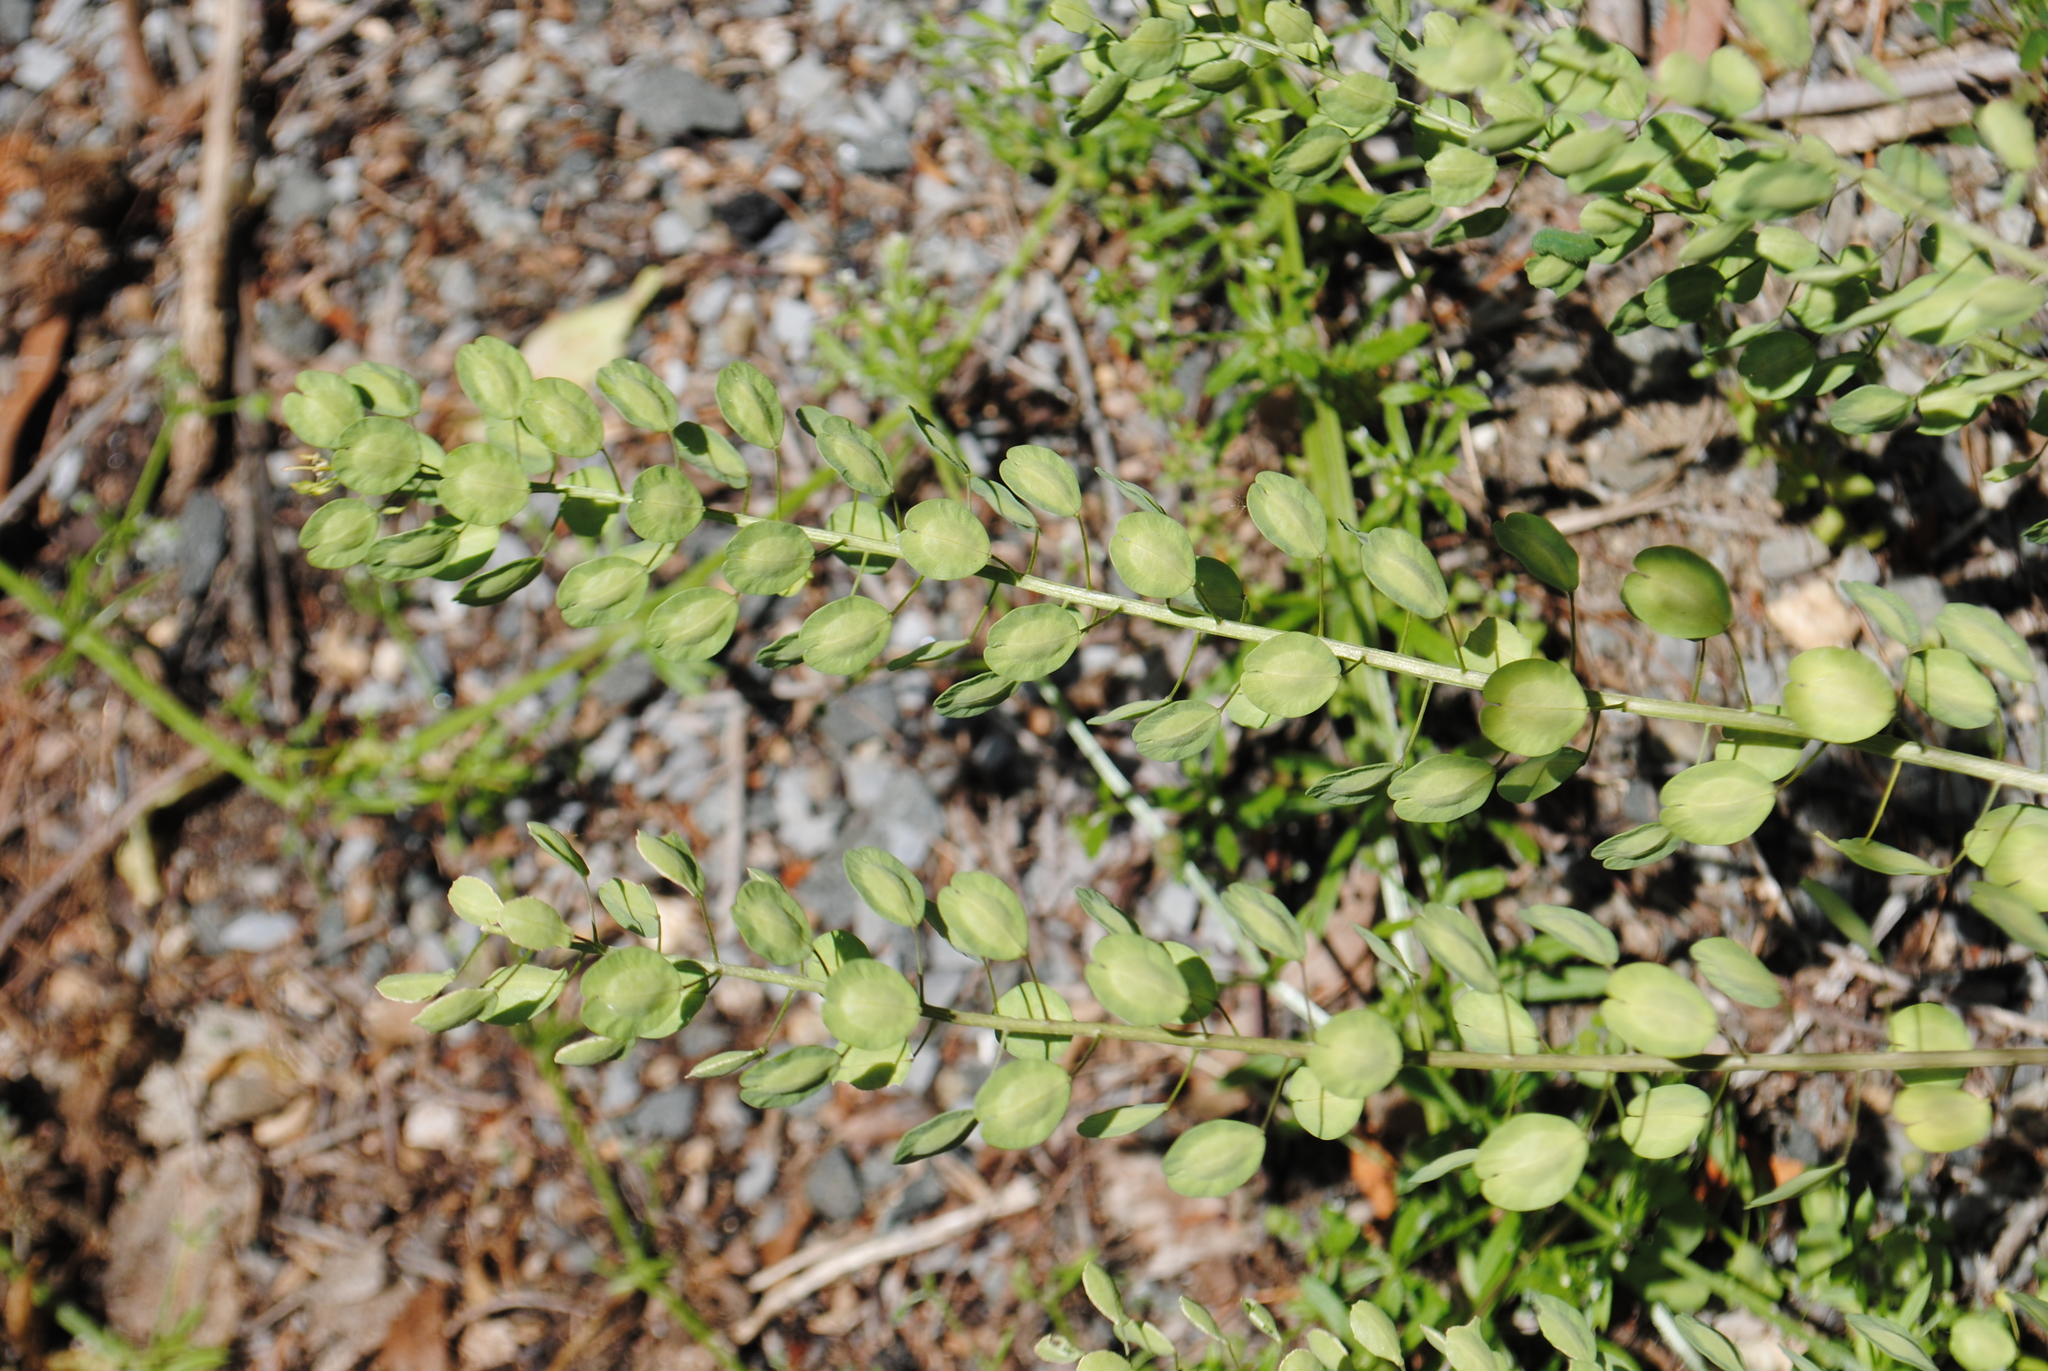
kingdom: Plantae
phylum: Tracheophyta
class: Magnoliopsida
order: Brassicales
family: Brassicaceae
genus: Thlaspi
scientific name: Thlaspi arvense
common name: Field pennycress
